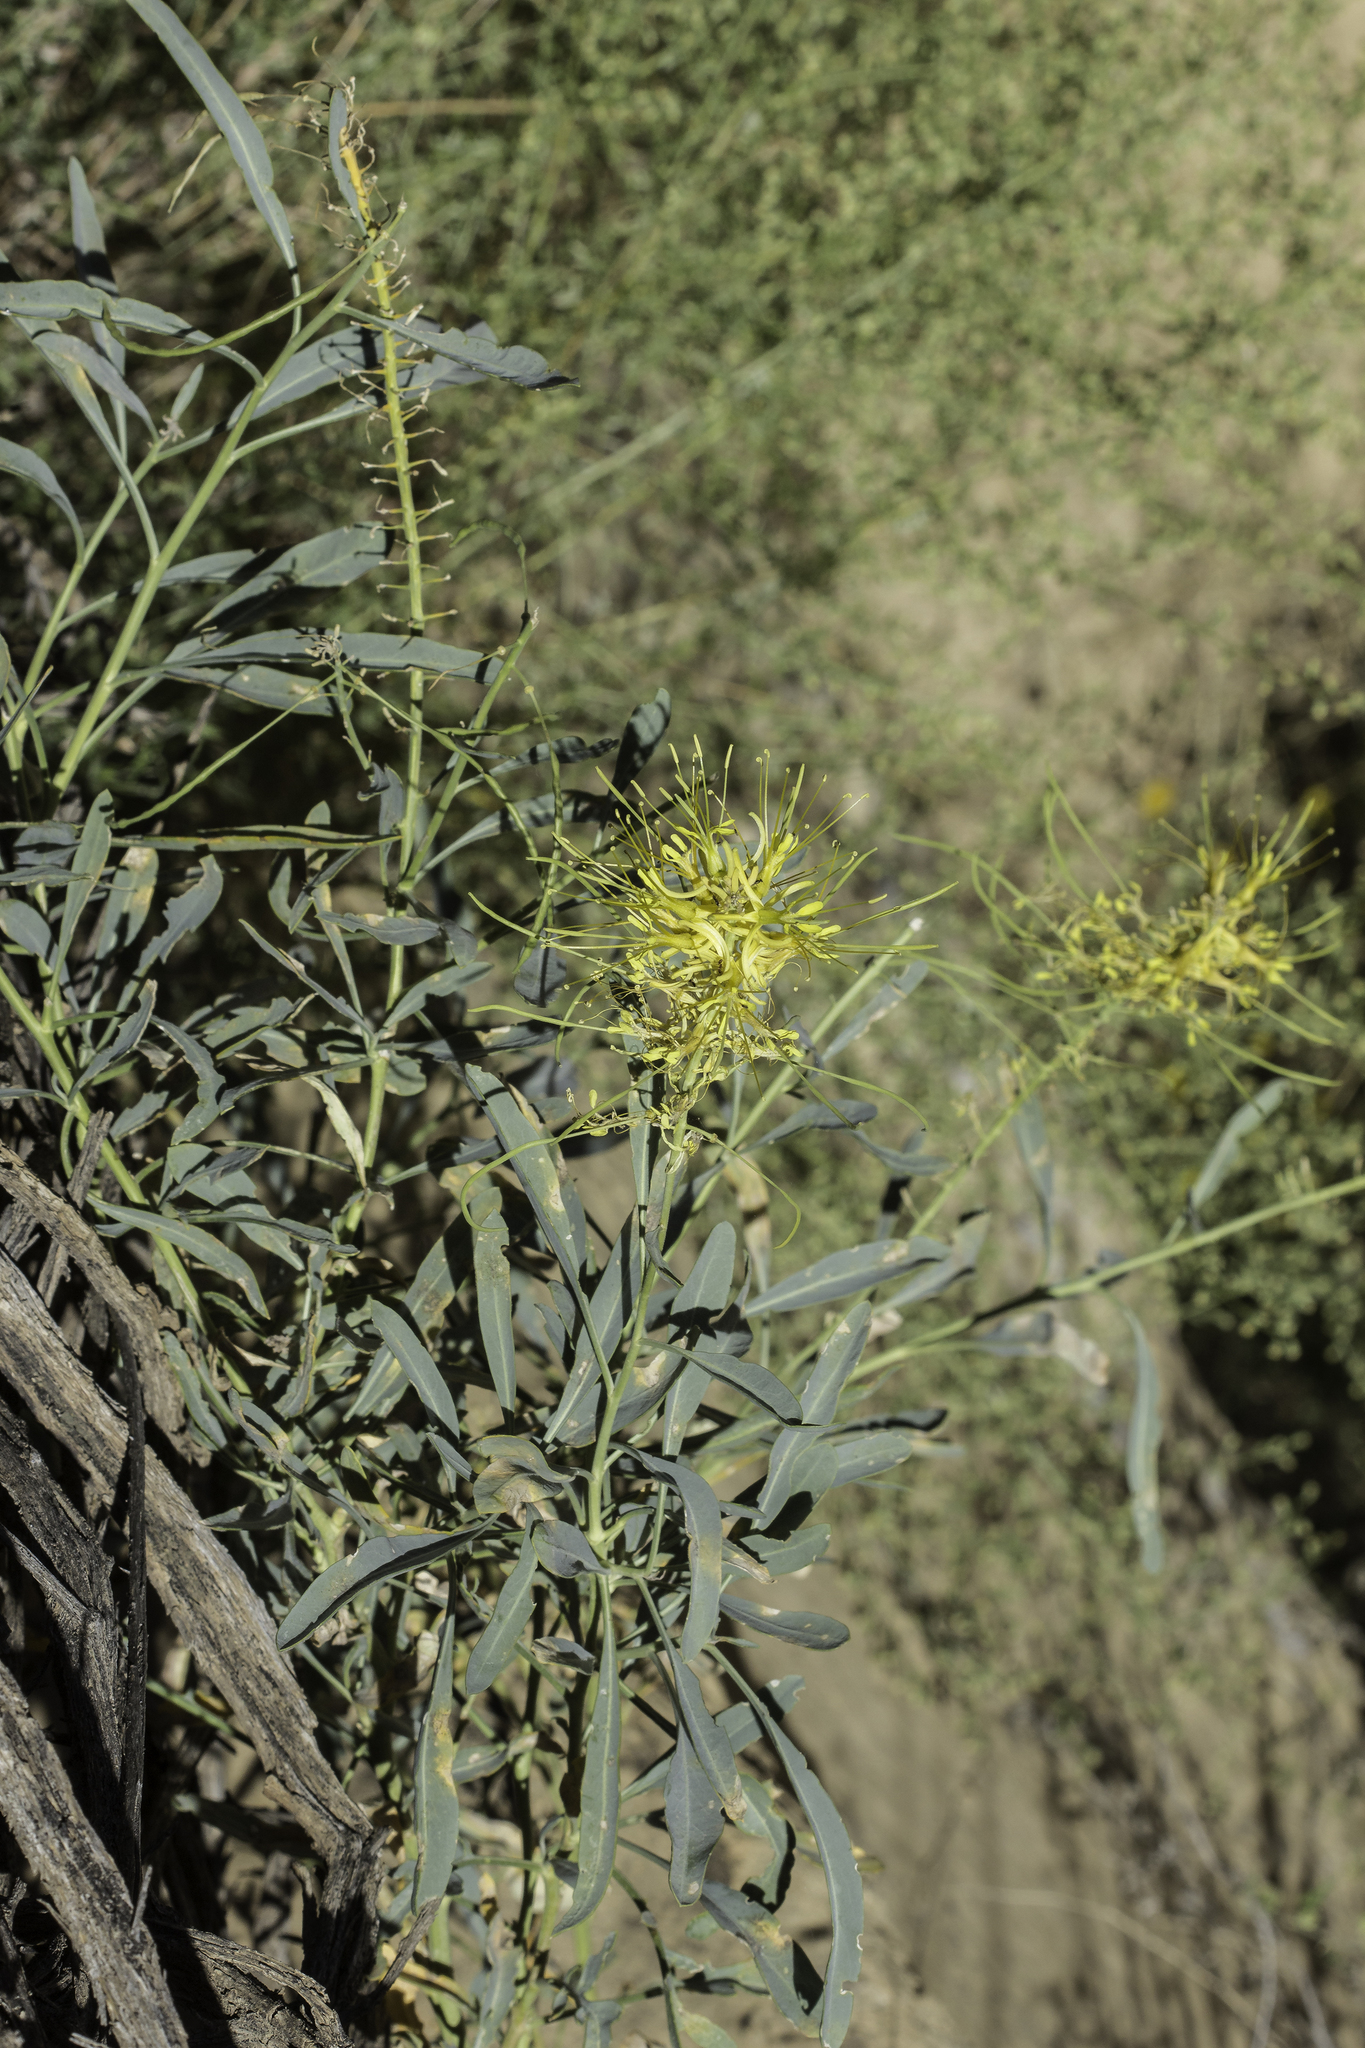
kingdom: Plantae
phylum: Tracheophyta
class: Magnoliopsida
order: Brassicales
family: Brassicaceae
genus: Stanleya
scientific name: Stanleya pinnata
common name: Prince's-plume
